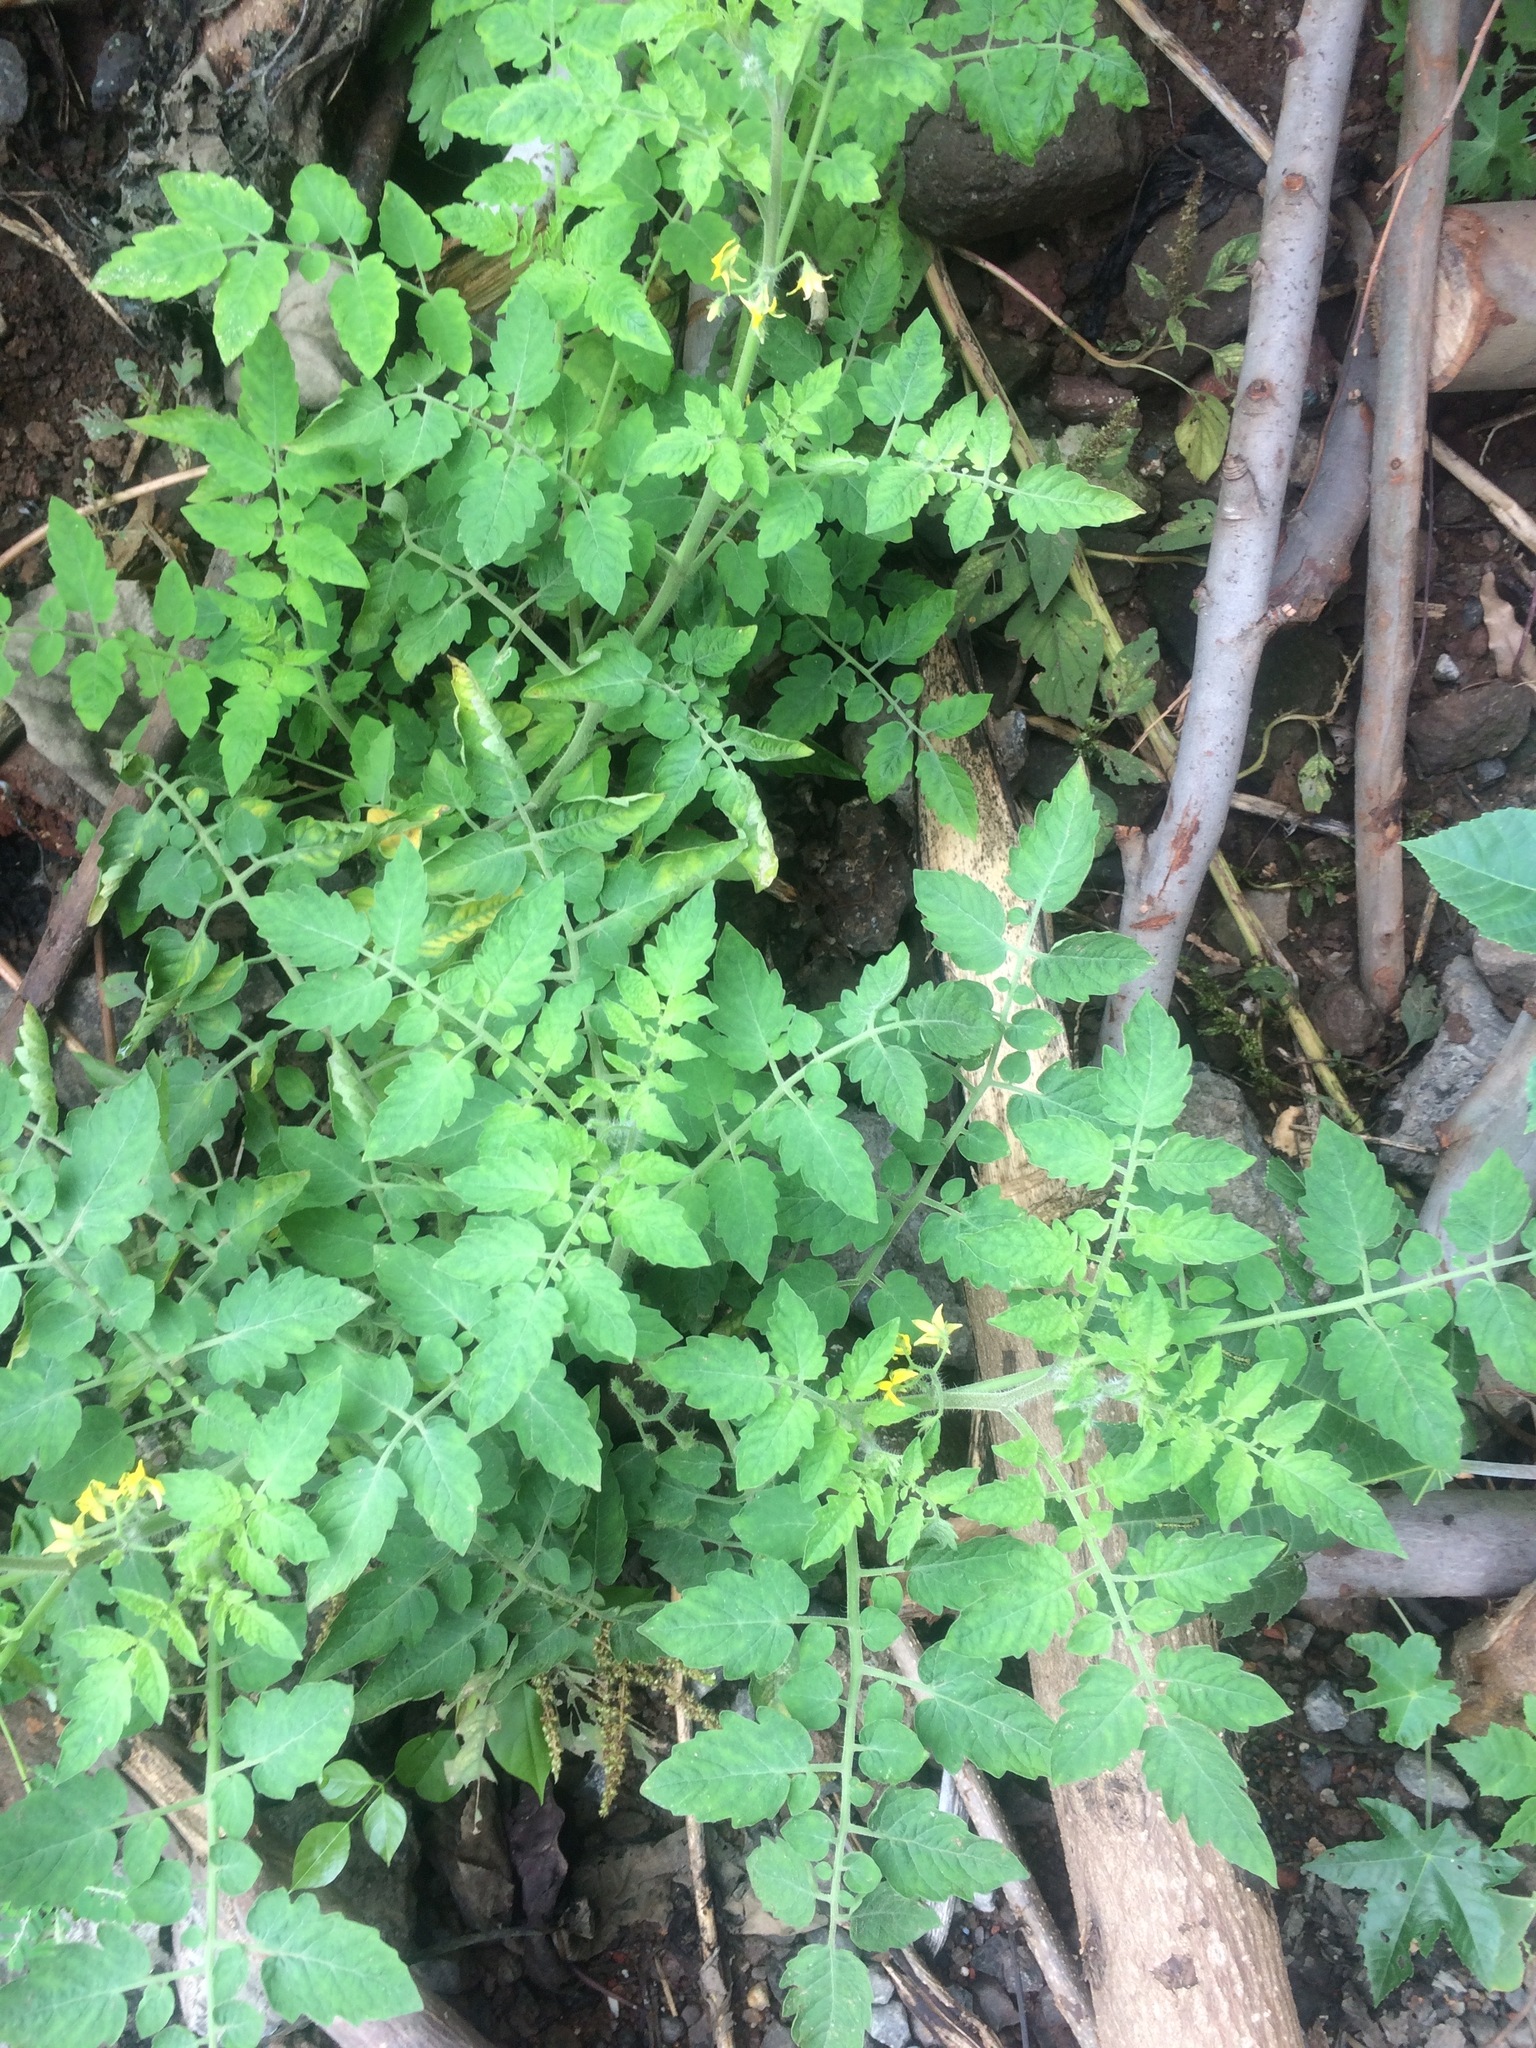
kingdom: Plantae
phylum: Tracheophyta
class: Magnoliopsida
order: Solanales
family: Solanaceae
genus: Solanum
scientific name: Solanum lycopersicum
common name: Garden tomato
